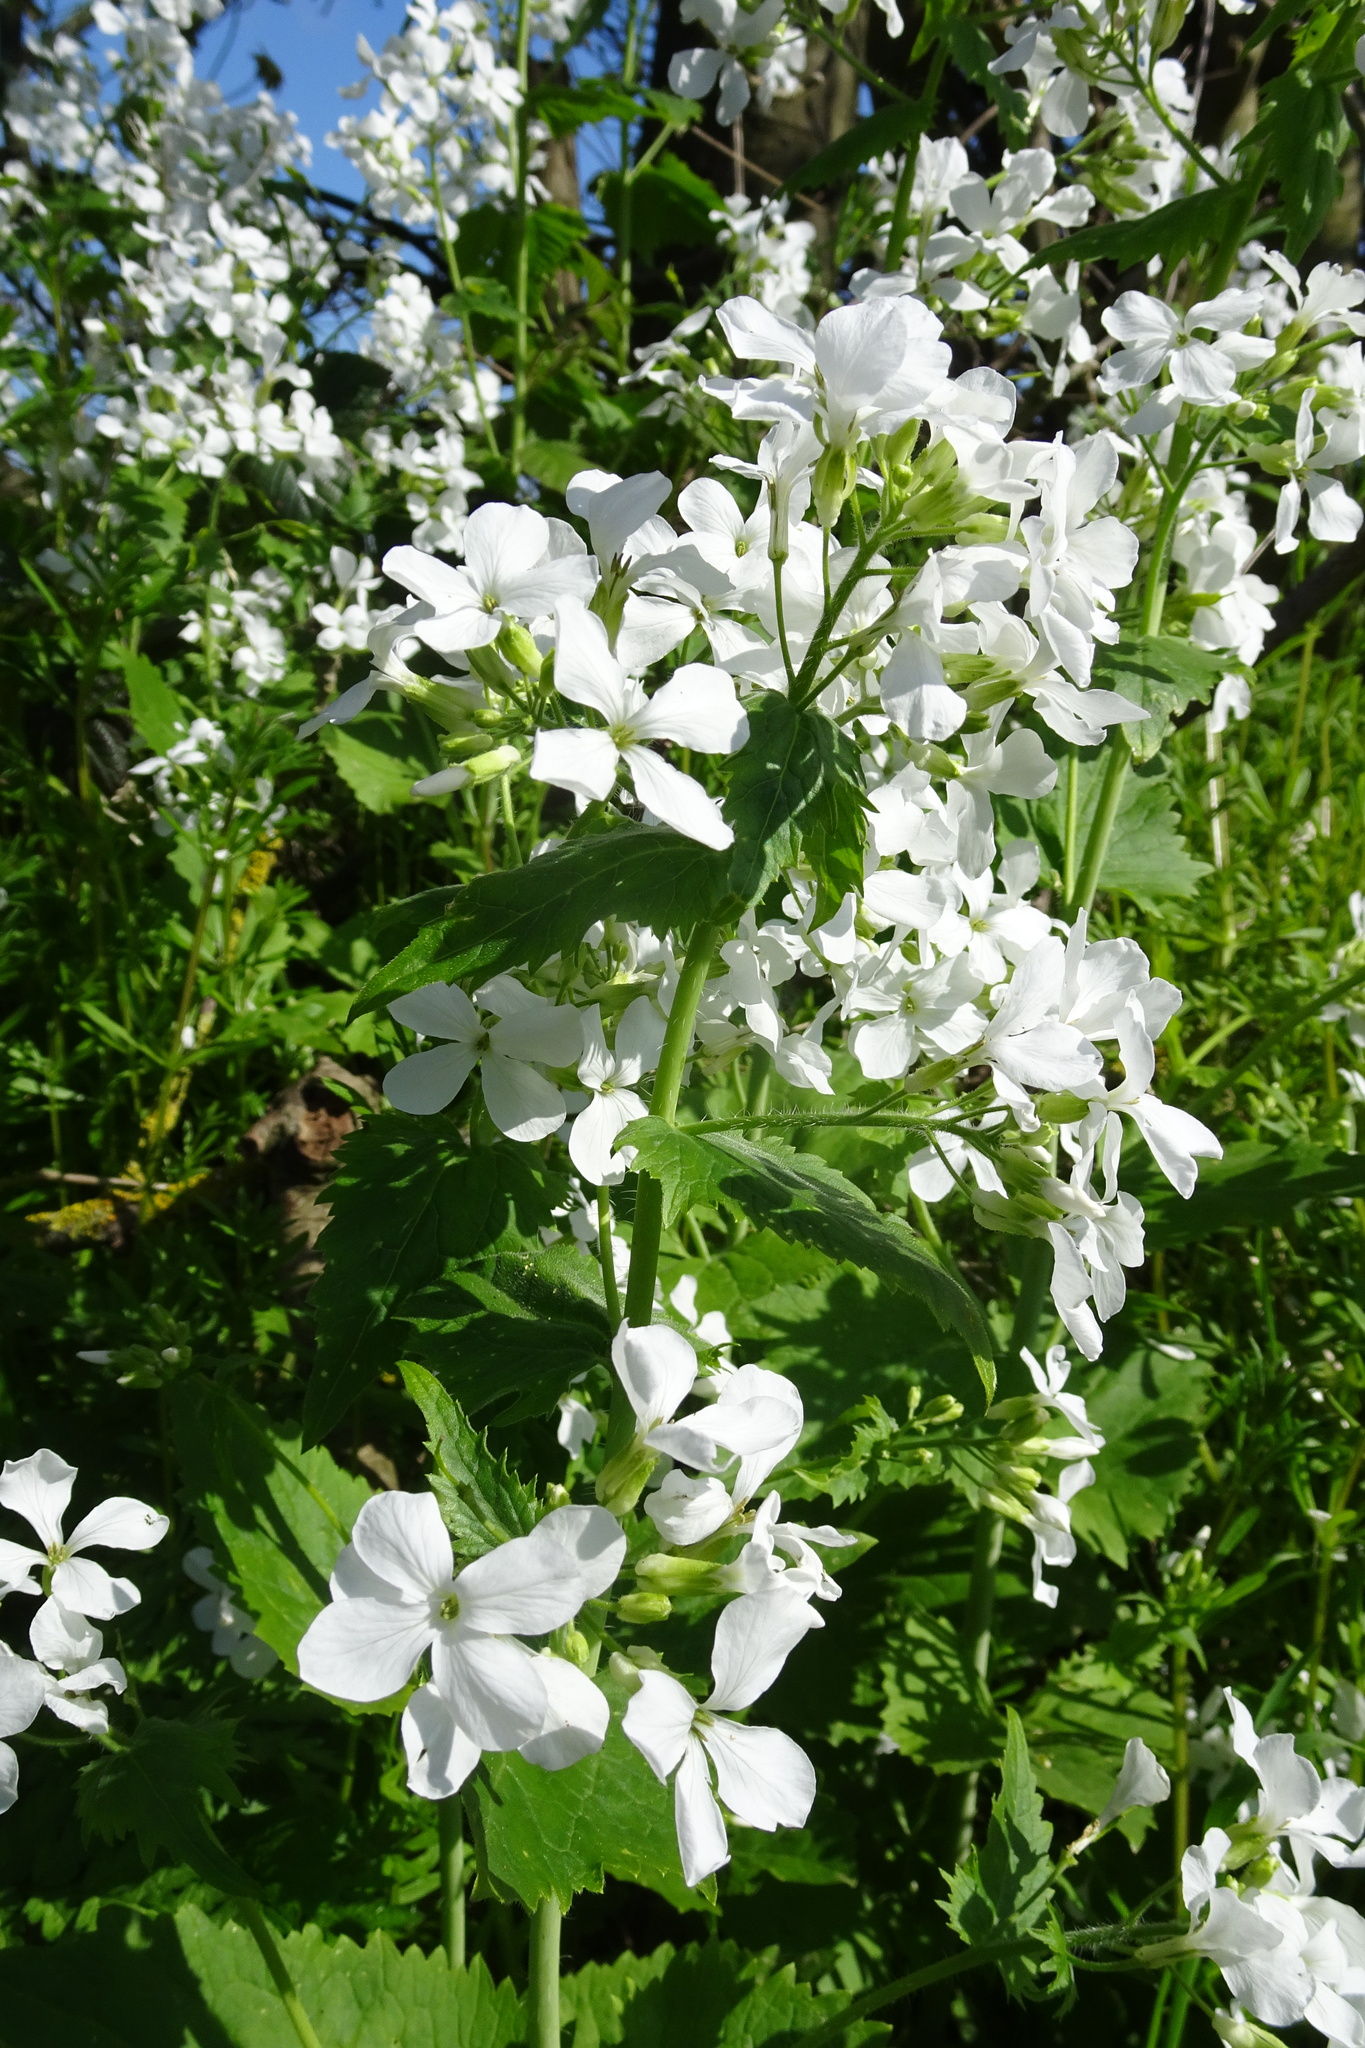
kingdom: Plantae
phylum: Tracheophyta
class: Magnoliopsida
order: Brassicales
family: Brassicaceae
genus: Lunaria
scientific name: Lunaria annua
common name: Honesty
